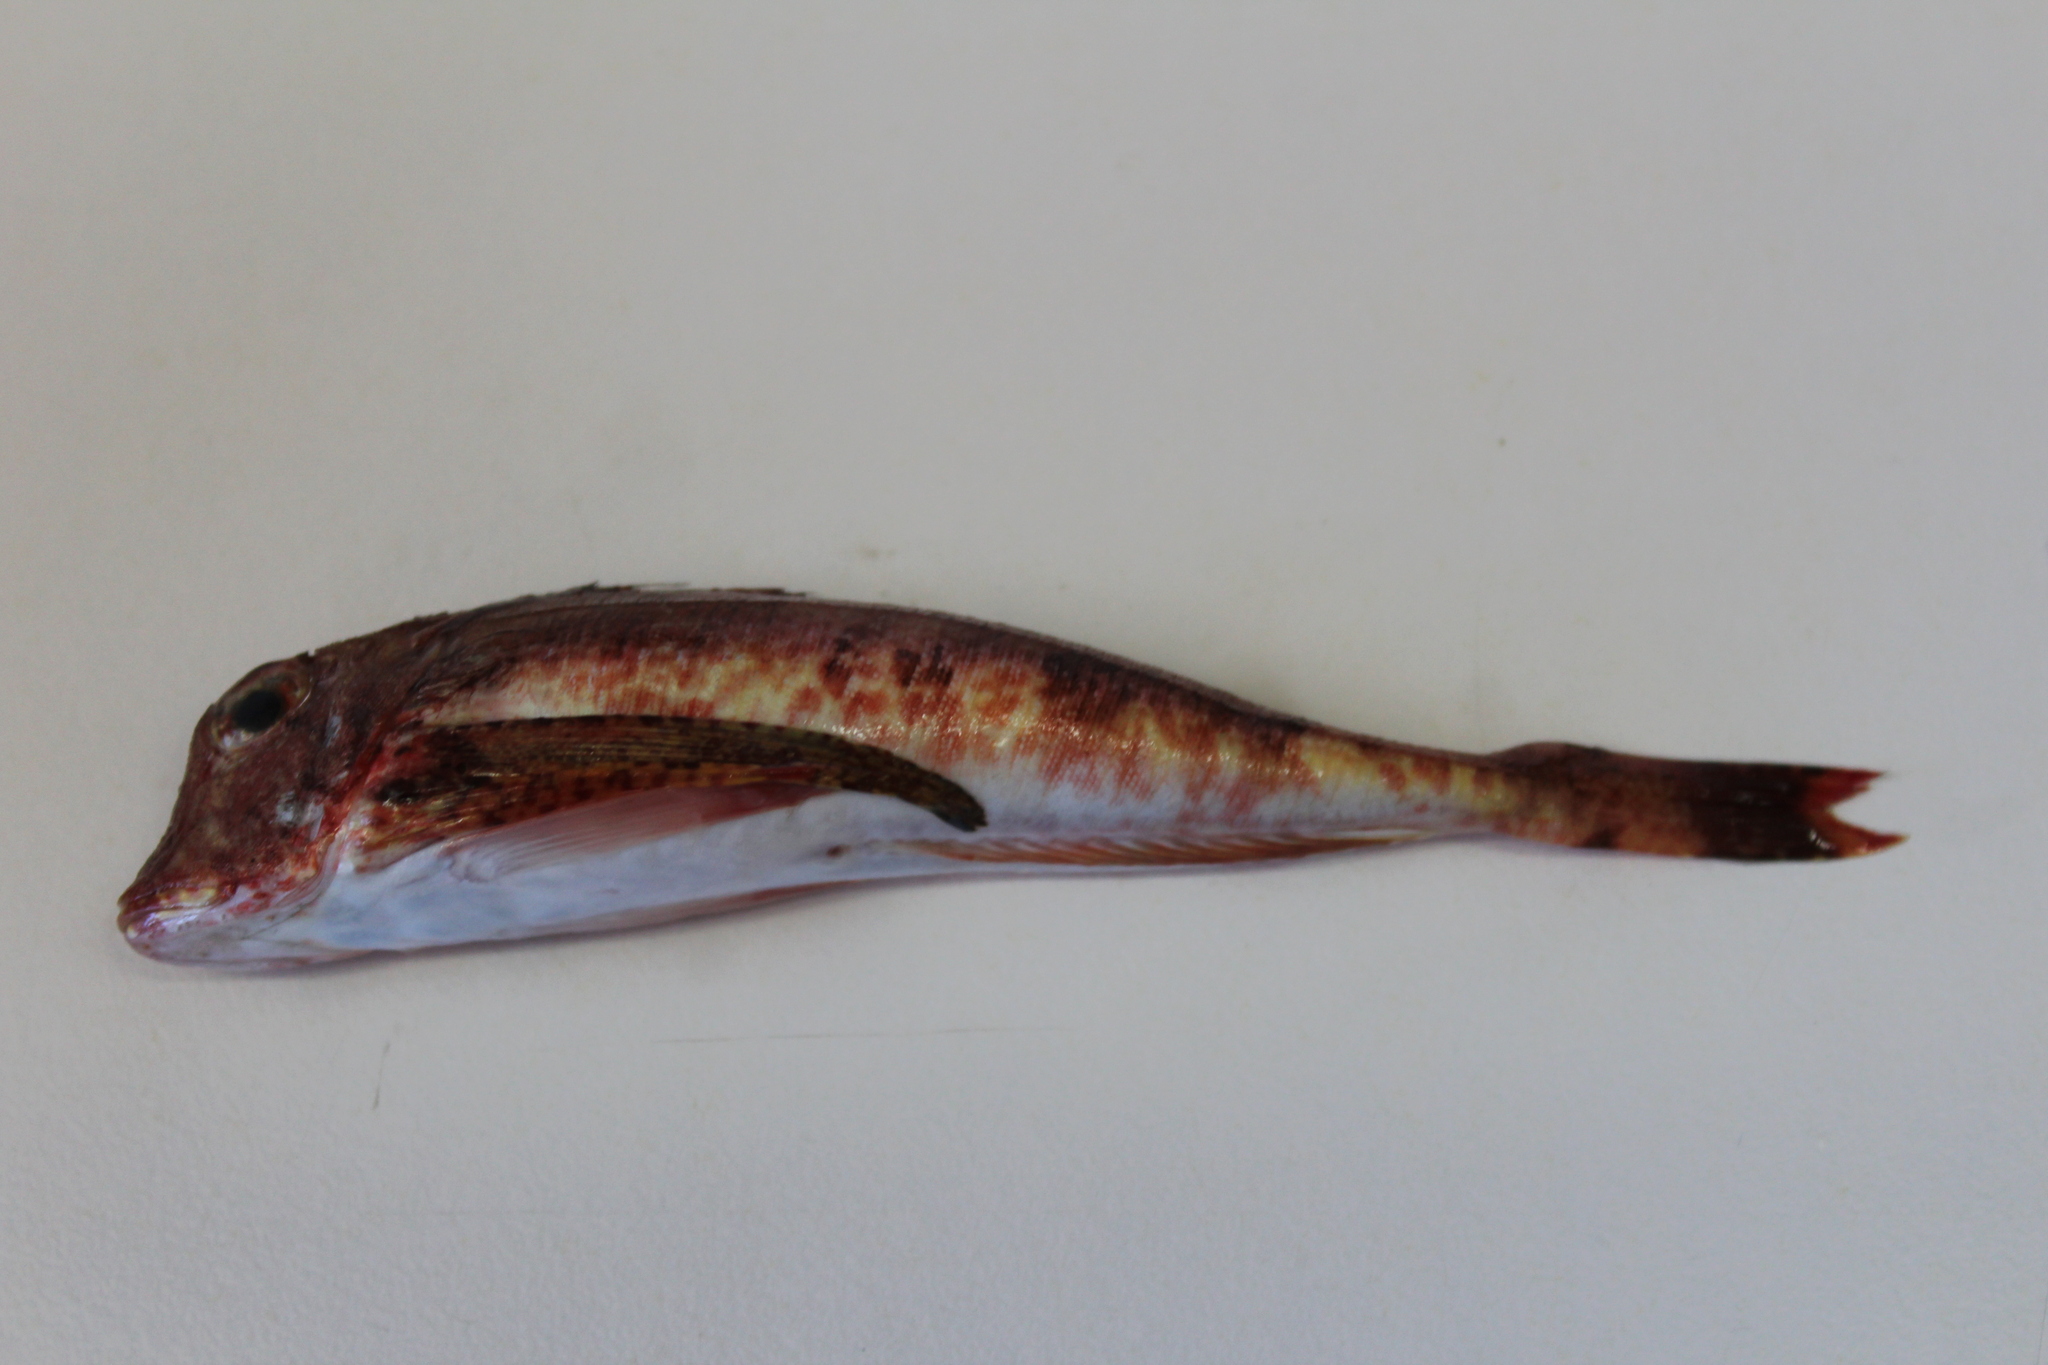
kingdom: Animalia
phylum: Chordata
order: Scorpaeniformes
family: Triglidae
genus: Chelidonichthys
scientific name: Chelidonichthys lastoviza
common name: Streaked gurnard
